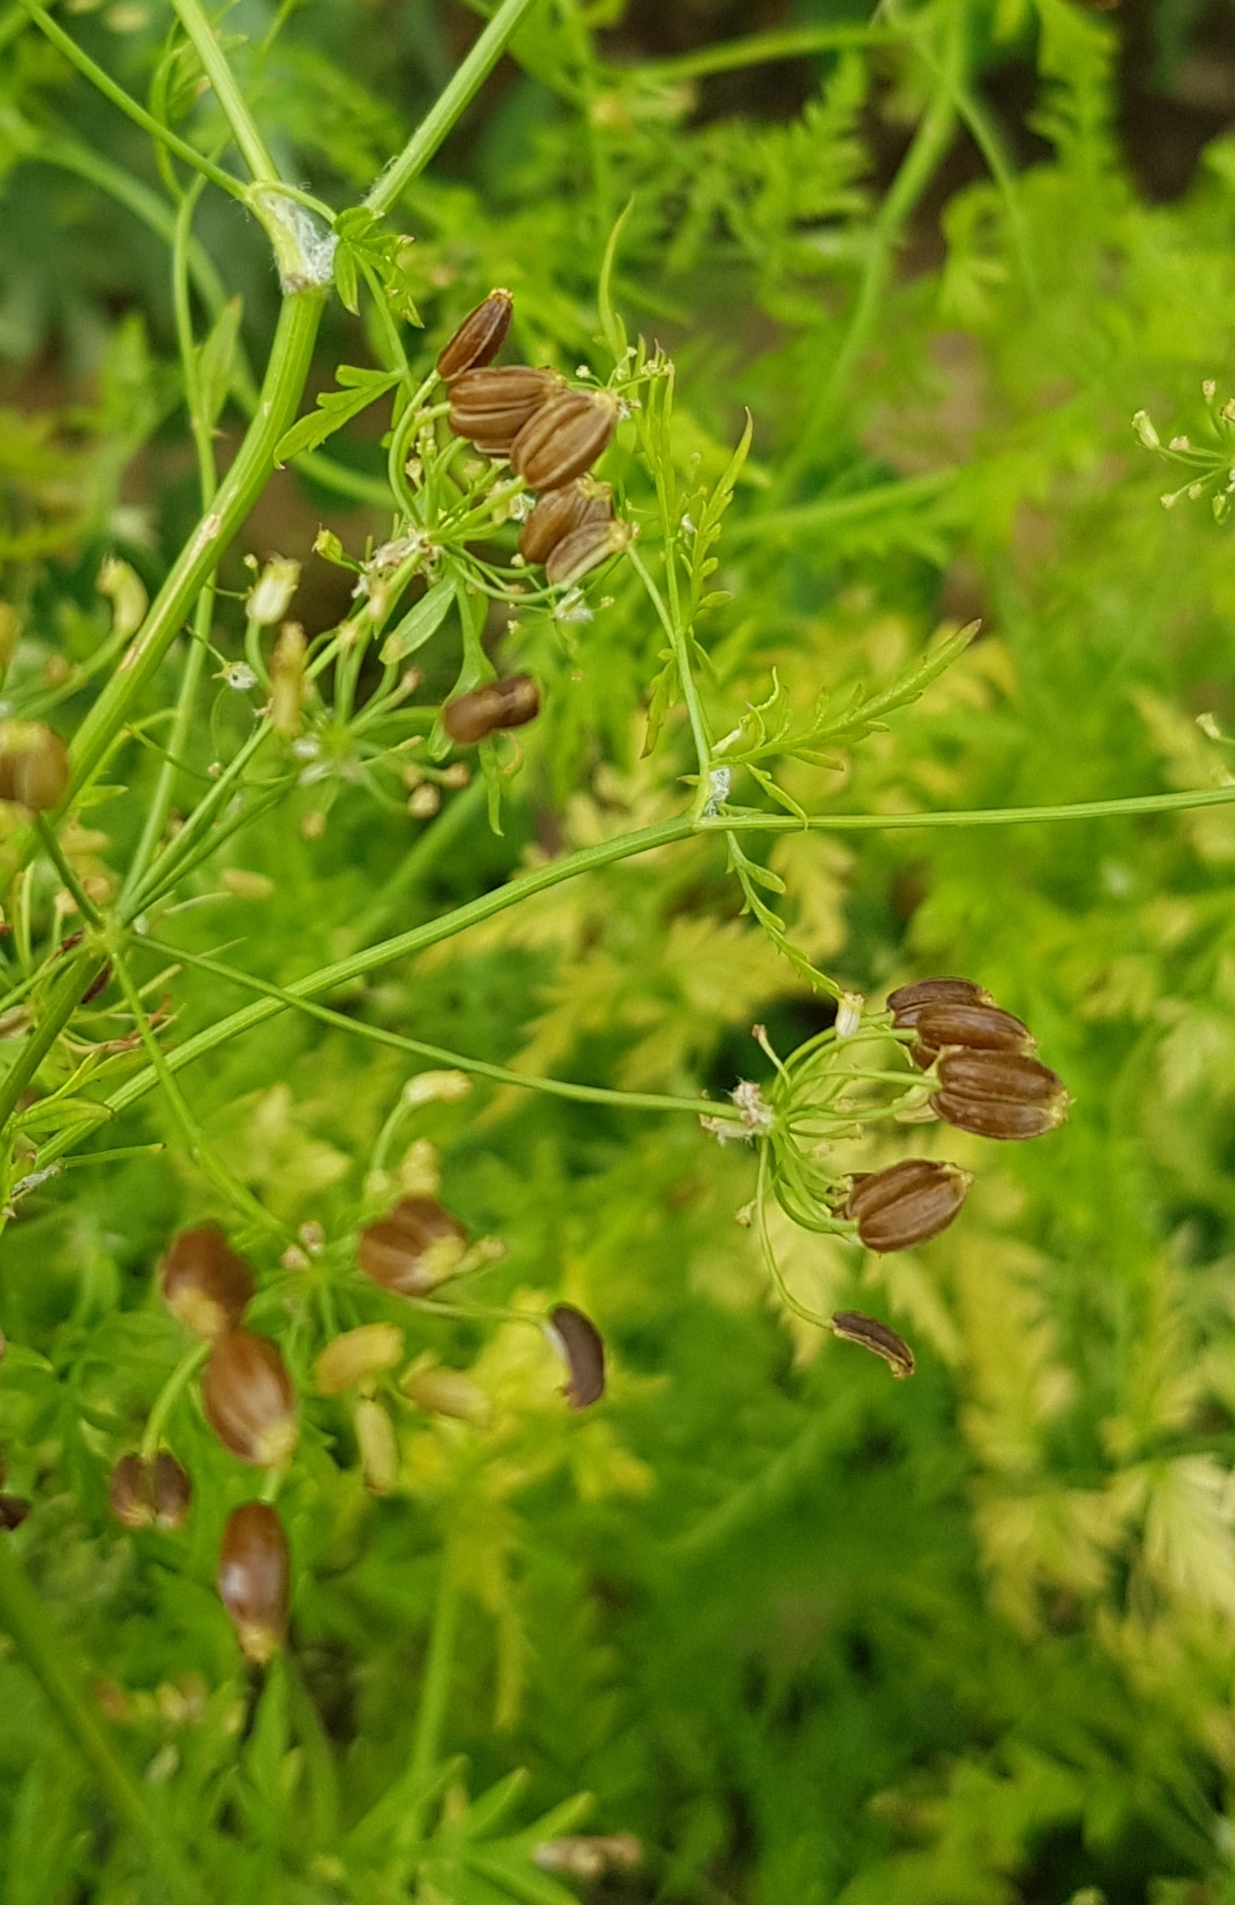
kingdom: Plantae
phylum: Tracheophyta
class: Magnoliopsida
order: Apiales
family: Apiaceae
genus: Sphallerocarpus
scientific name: Sphallerocarpus gracilis
